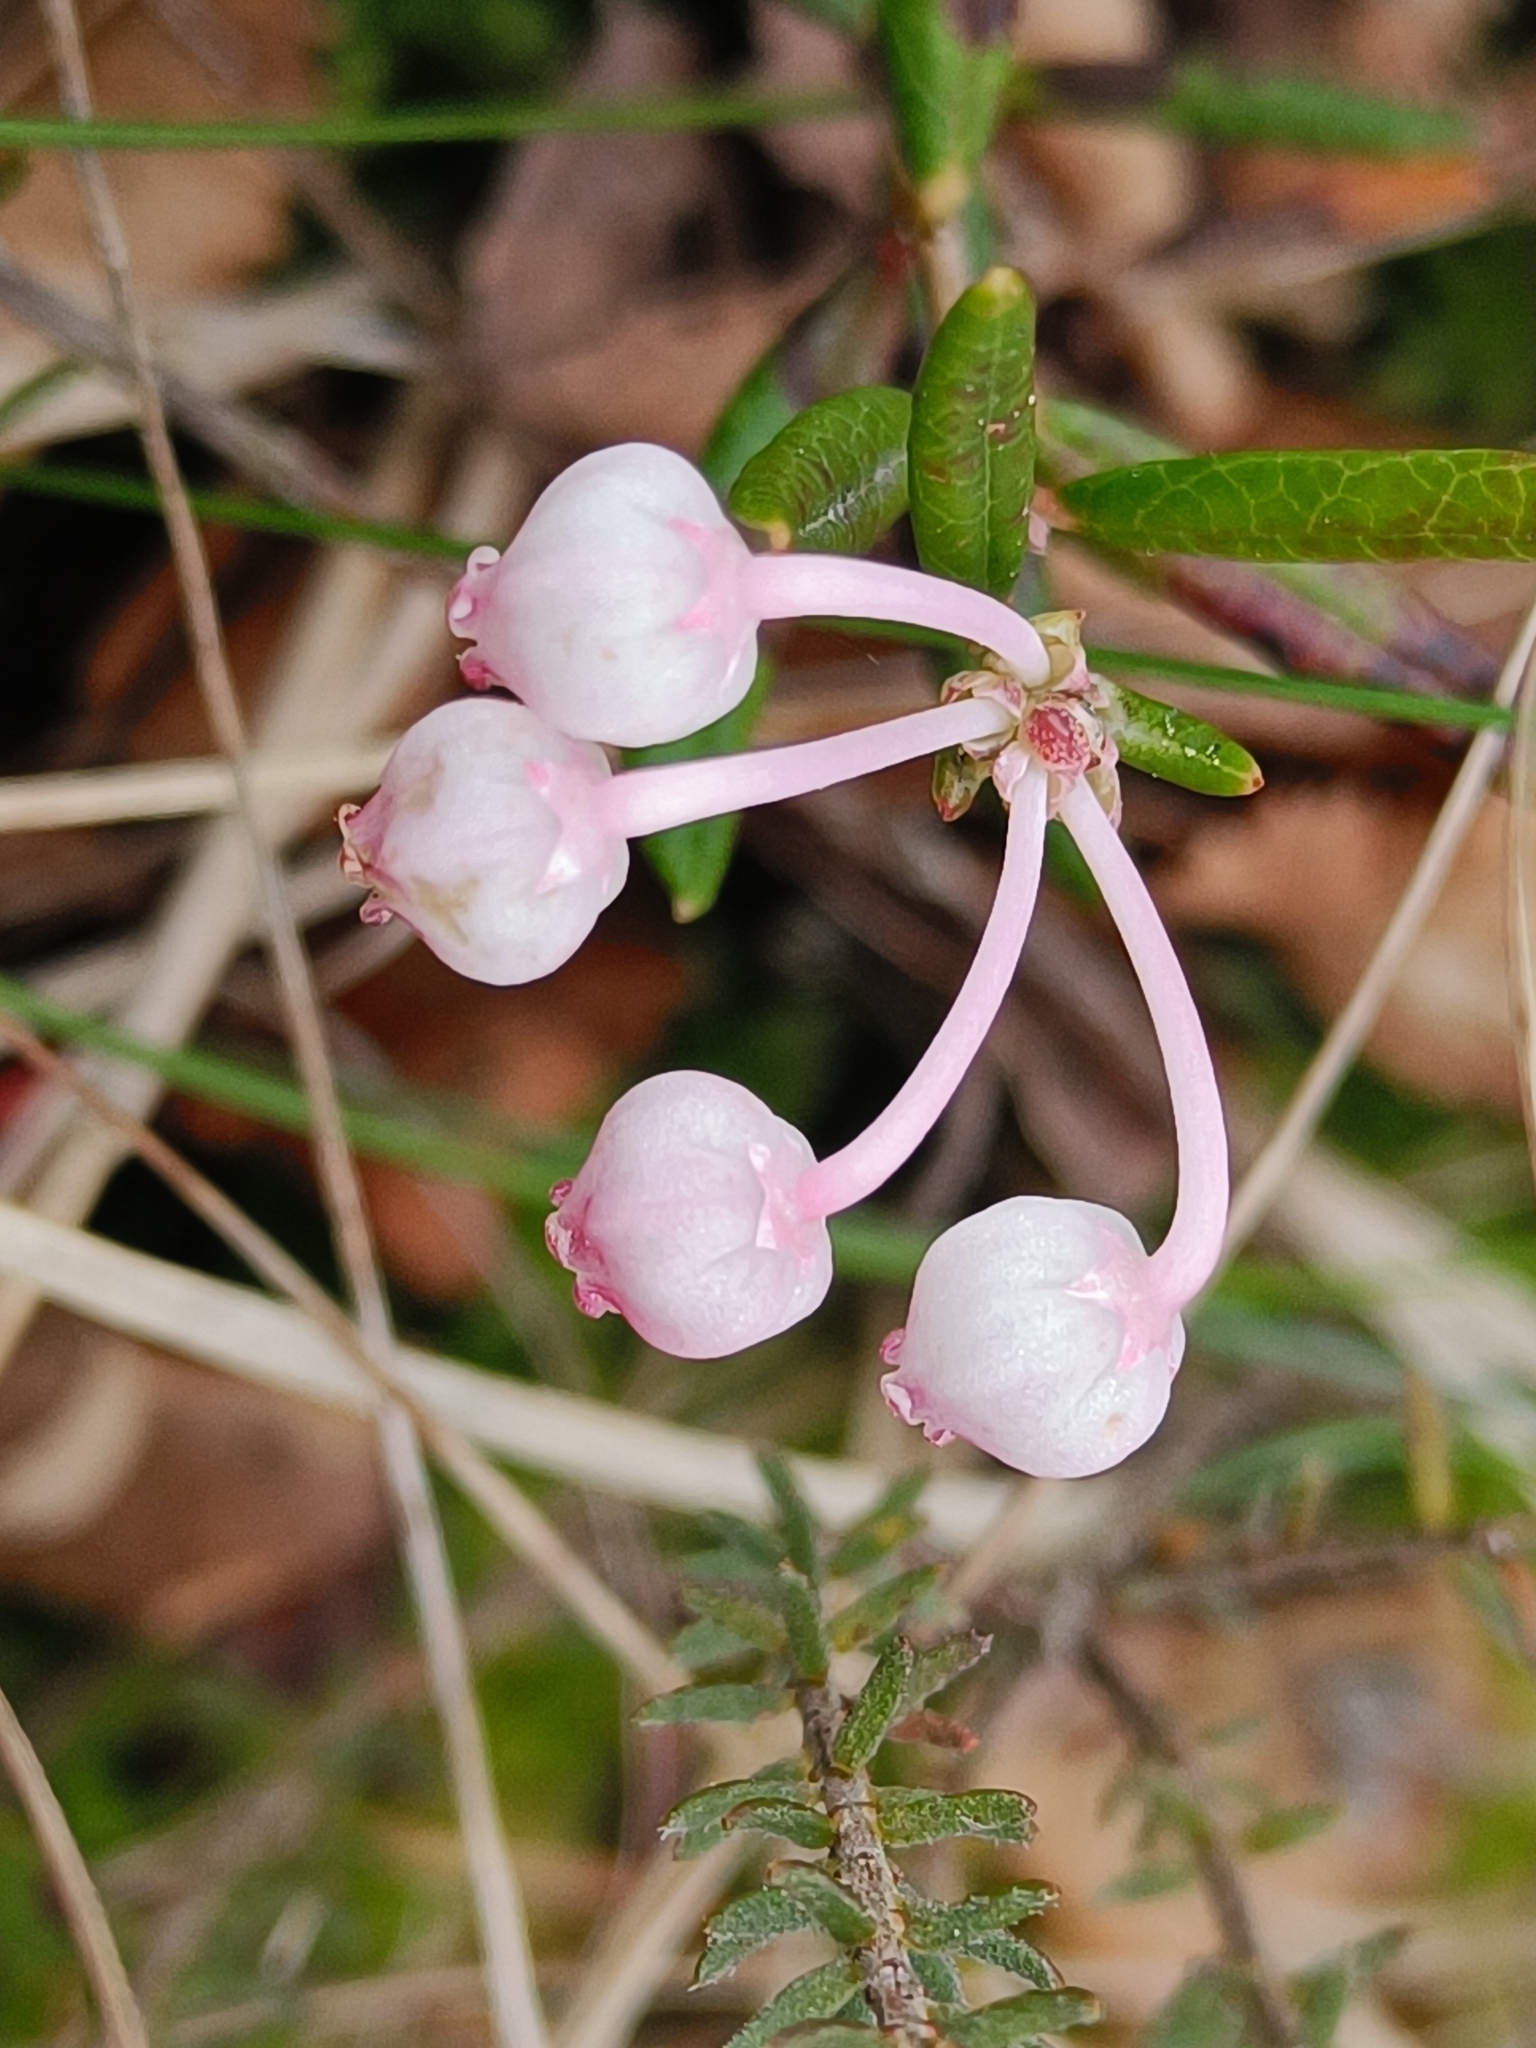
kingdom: Plantae
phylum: Tracheophyta
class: Magnoliopsida
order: Ericales
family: Ericaceae
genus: Andromeda
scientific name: Andromeda polifolia
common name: Bog-rosemary
